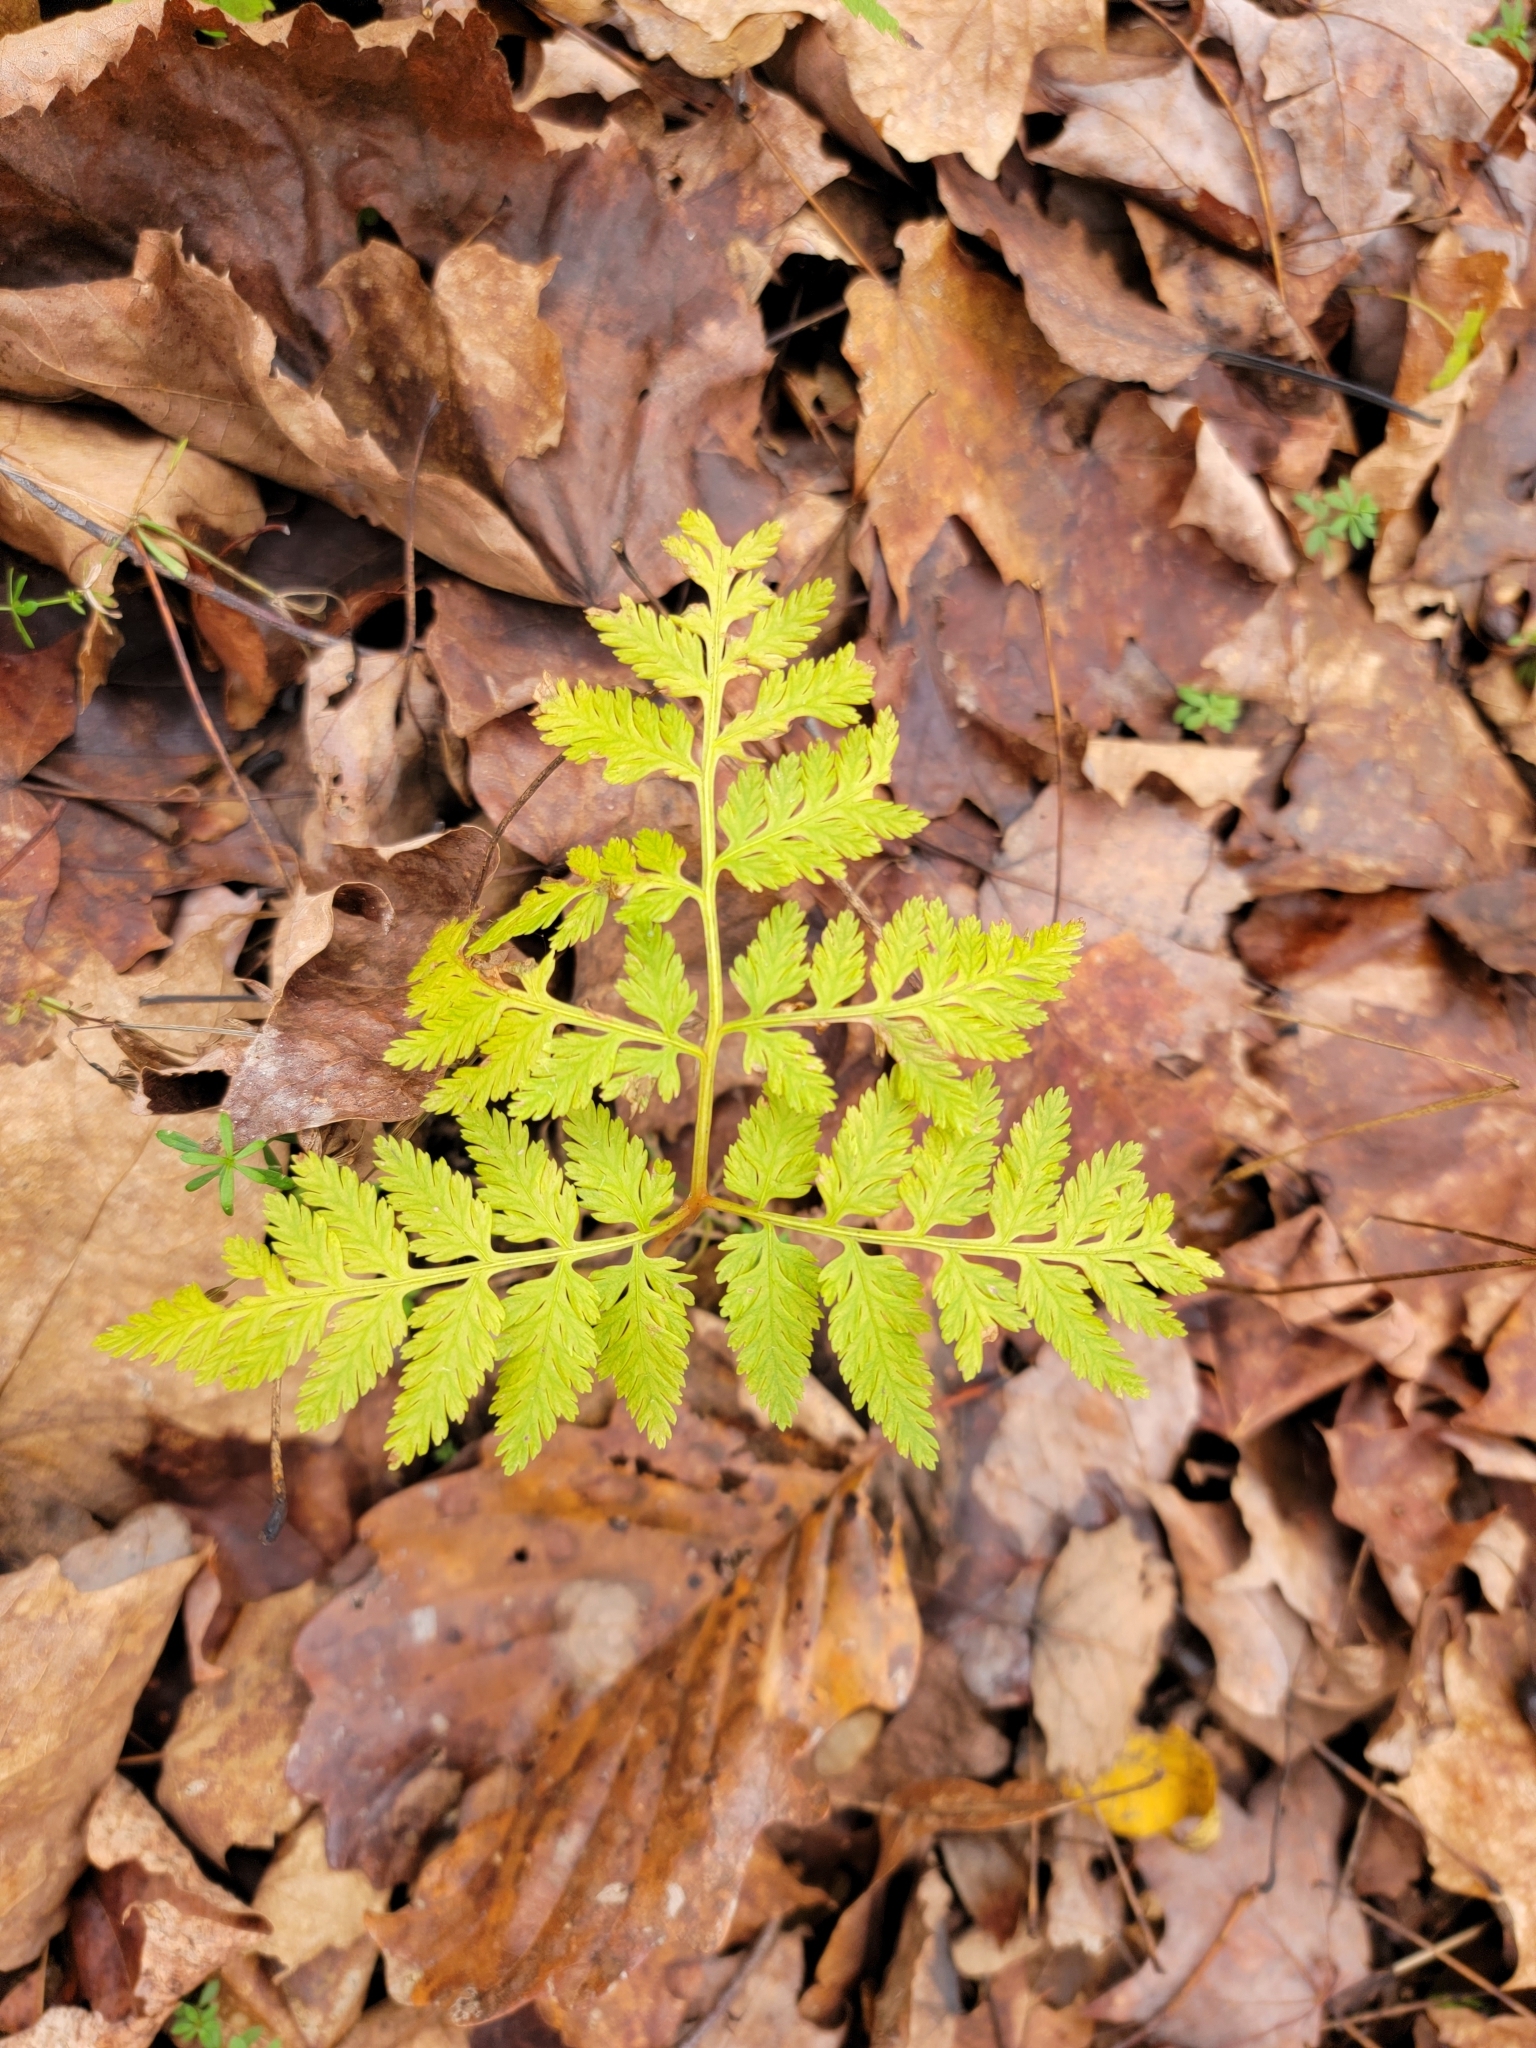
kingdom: Plantae
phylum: Tracheophyta
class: Polypodiopsida
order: Ophioglossales
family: Ophioglossaceae
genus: Botrypus
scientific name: Botrypus virginianus
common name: Common grapefern
